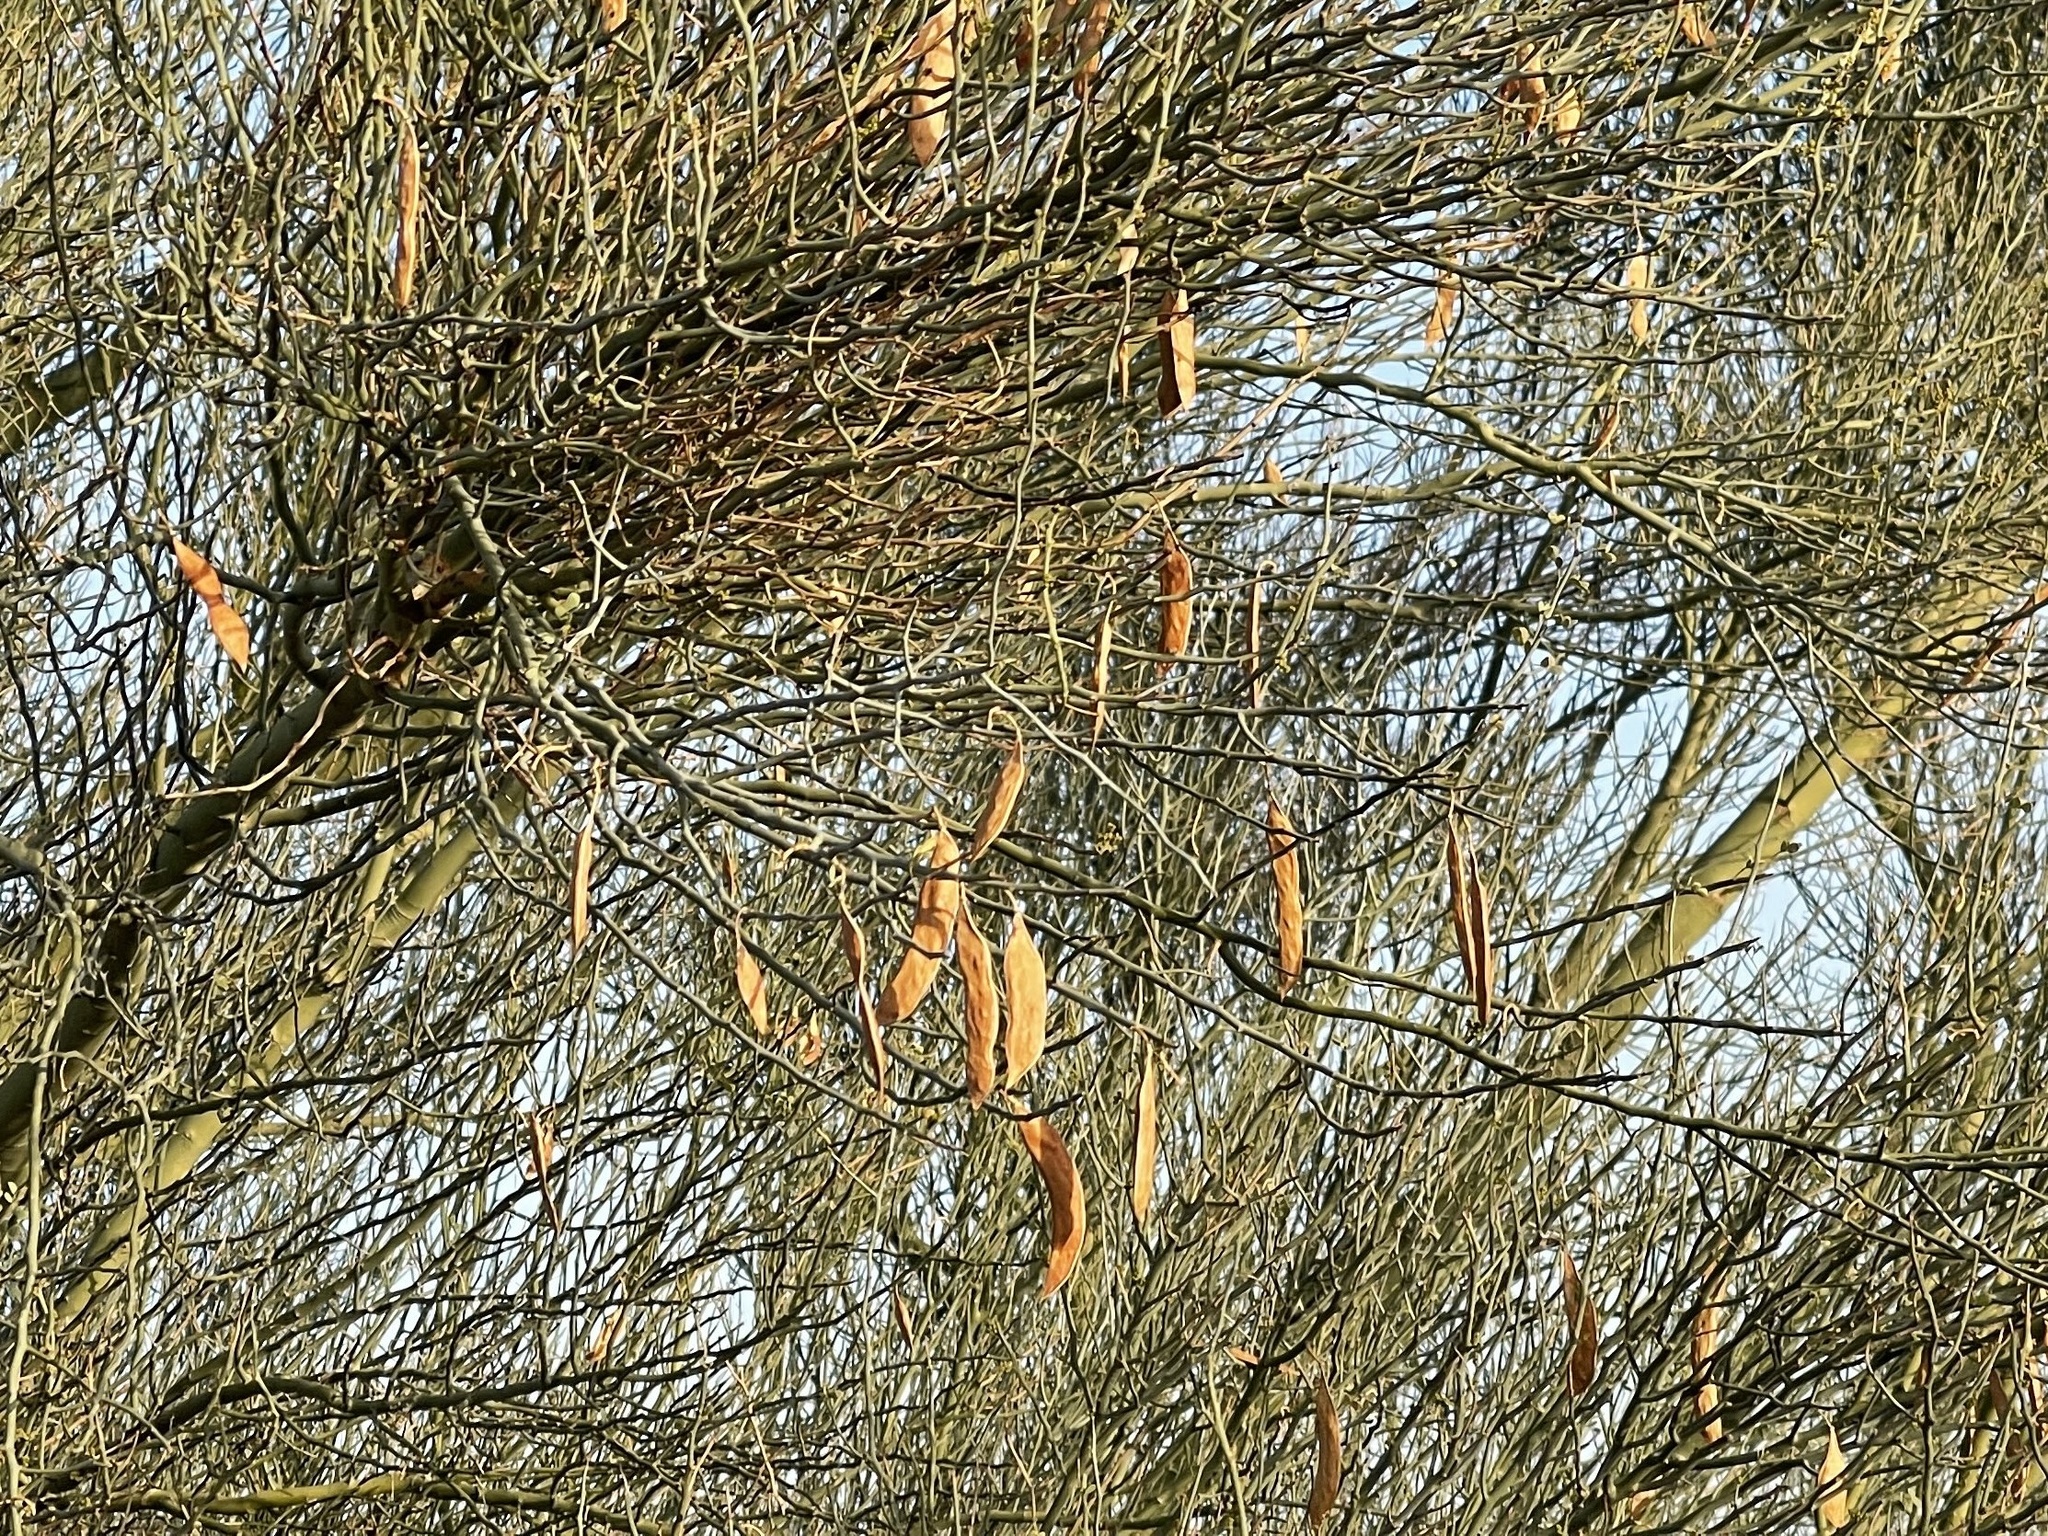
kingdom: Plantae
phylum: Tracheophyta
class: Magnoliopsida
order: Fabales
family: Fabaceae
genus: Parkinsonia
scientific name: Parkinsonia florida
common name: Blue paloverde
